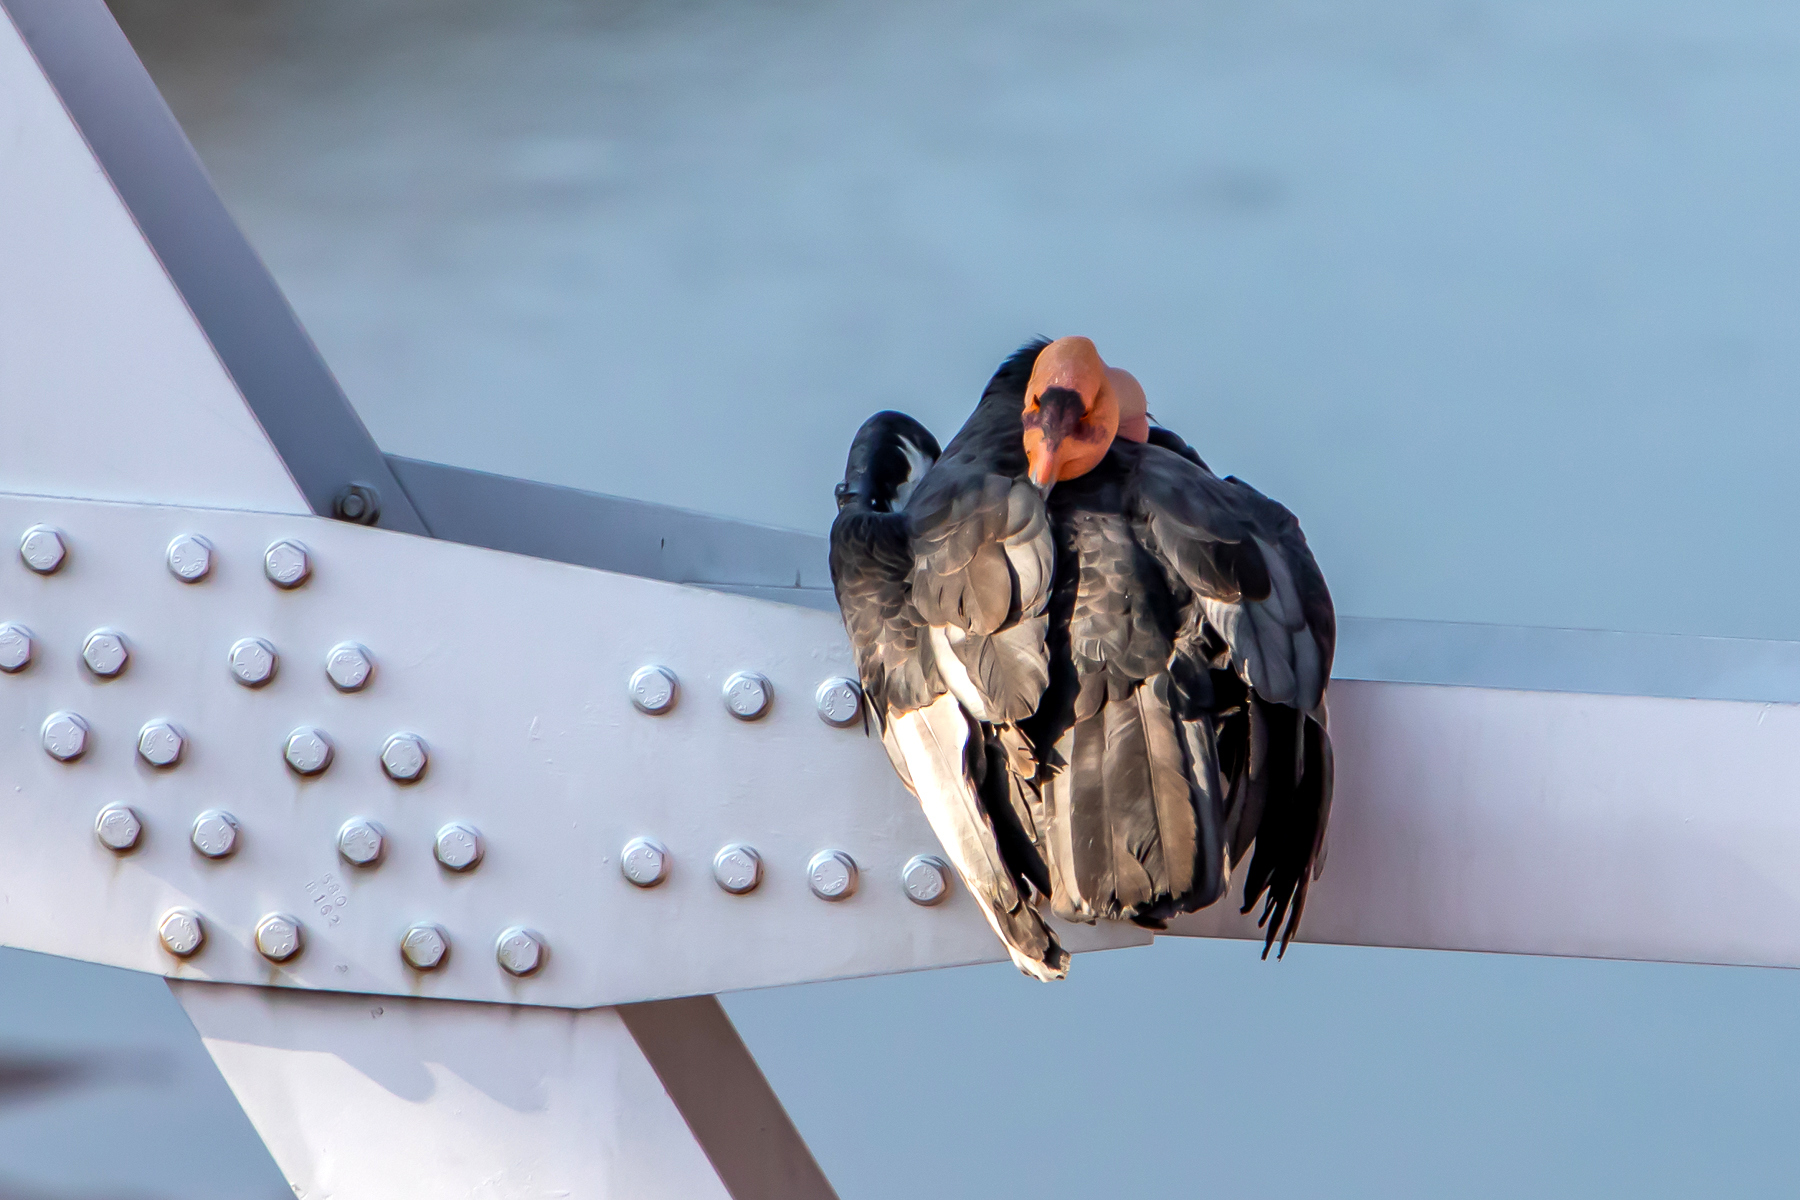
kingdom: Animalia
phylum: Chordata
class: Aves
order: Accipitriformes
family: Cathartidae
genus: Gymnogyps
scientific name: Gymnogyps californianus
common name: California condor
